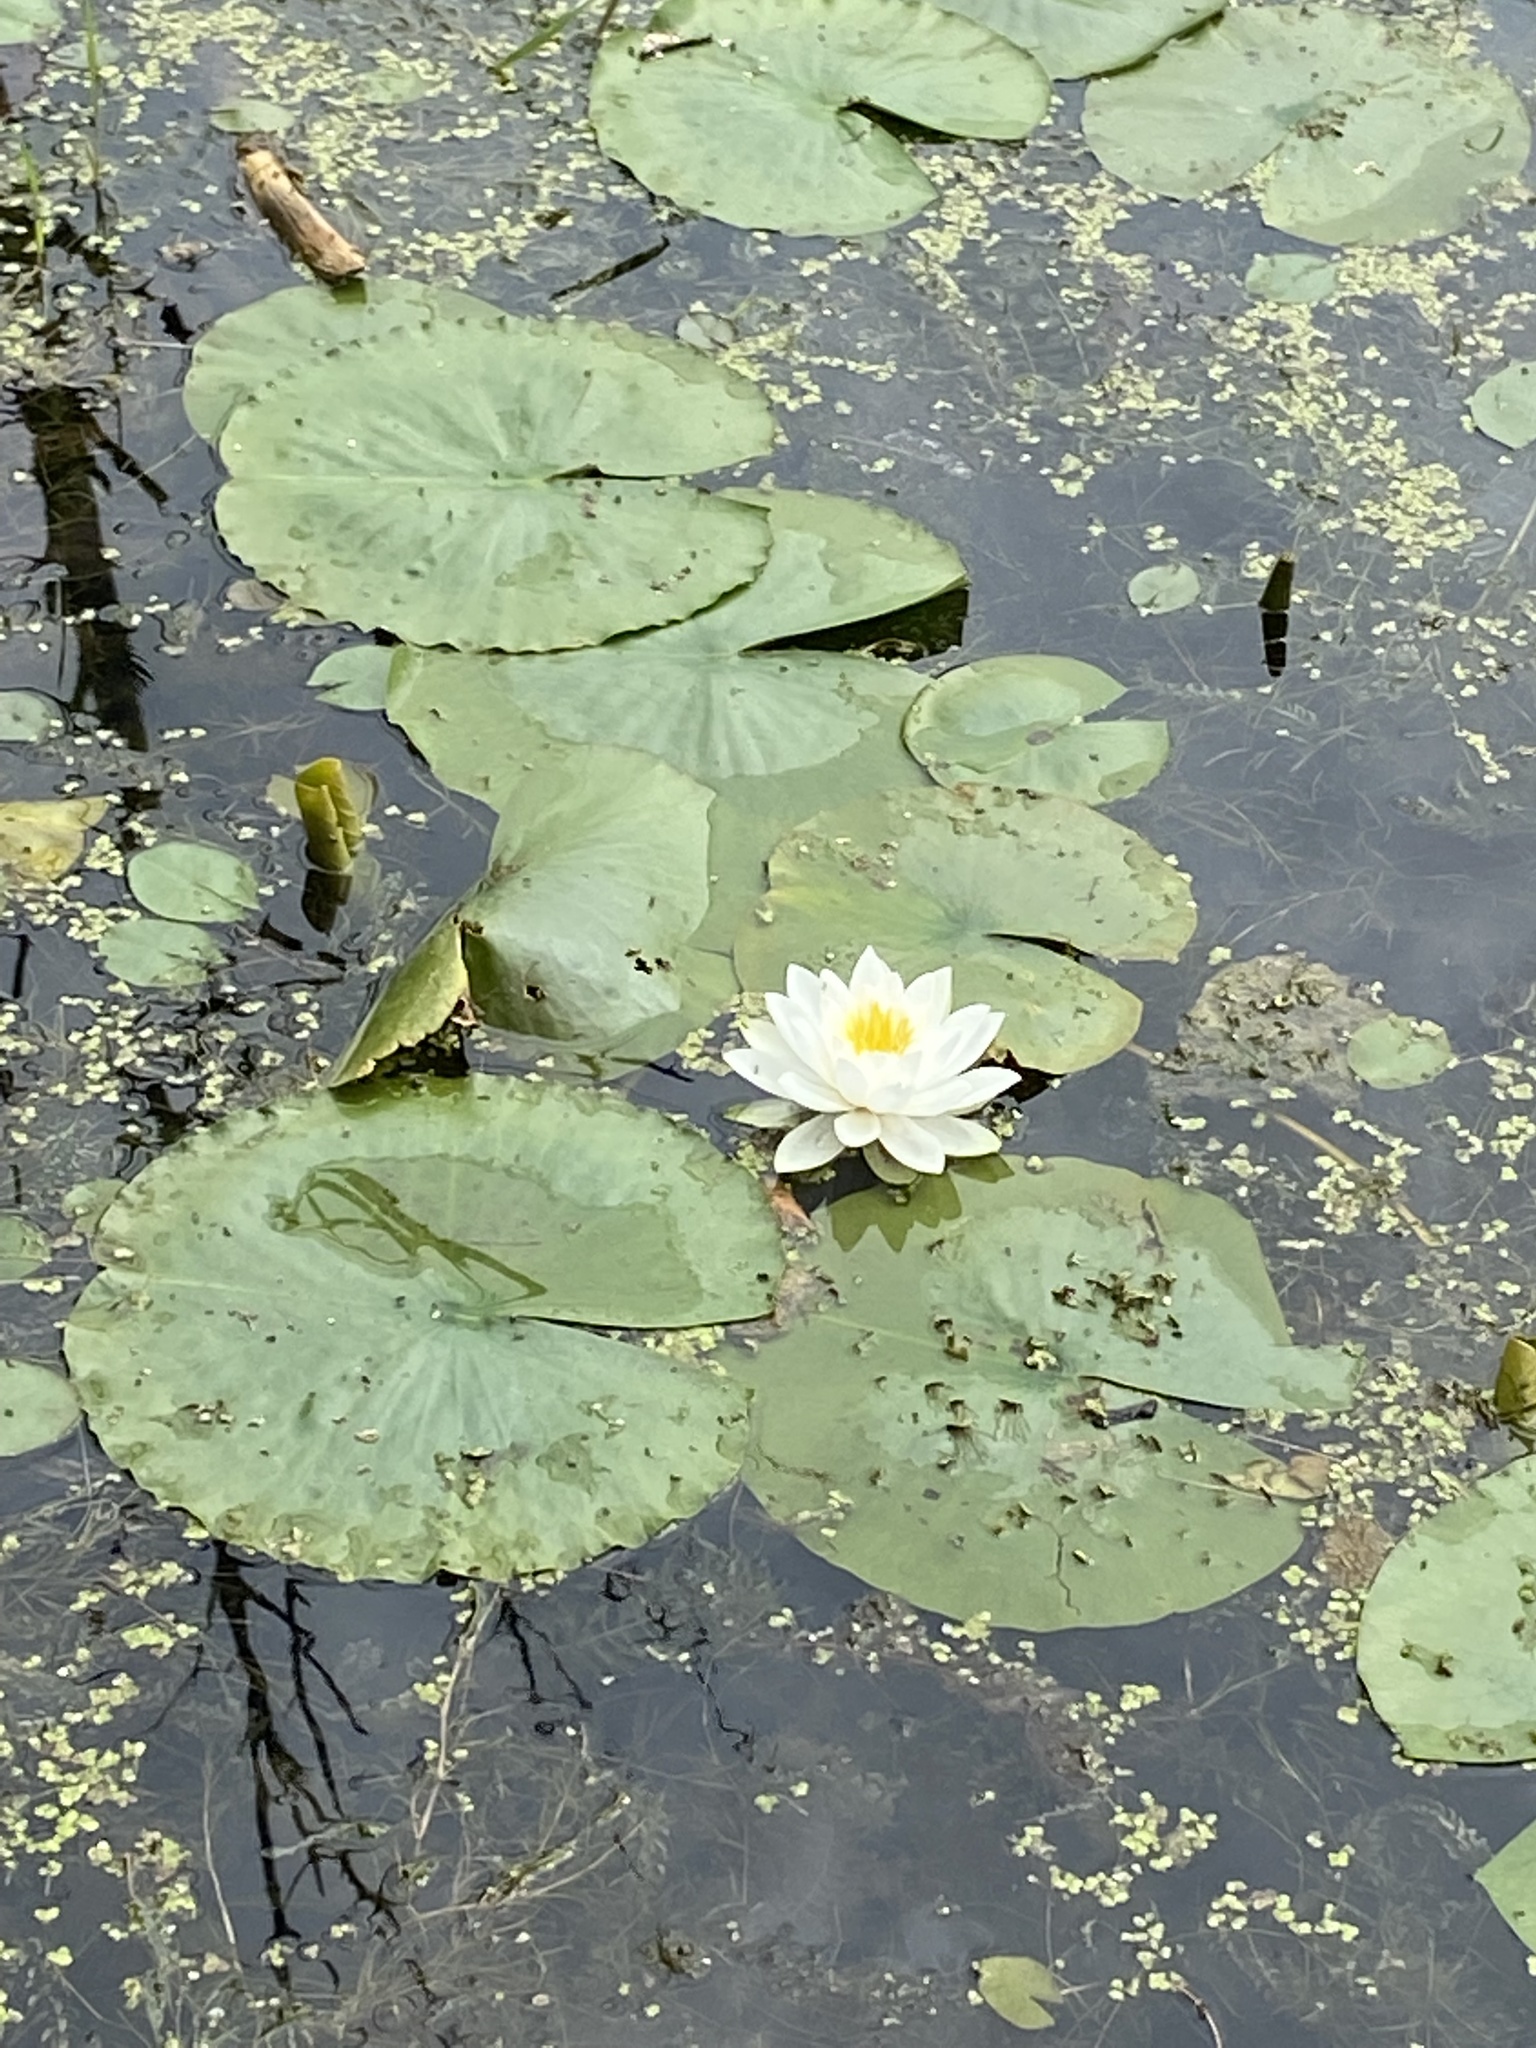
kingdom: Plantae
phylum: Tracheophyta
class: Magnoliopsida
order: Nymphaeales
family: Nymphaeaceae
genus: Nymphaea
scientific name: Nymphaea odorata
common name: Fragrant water-lily
